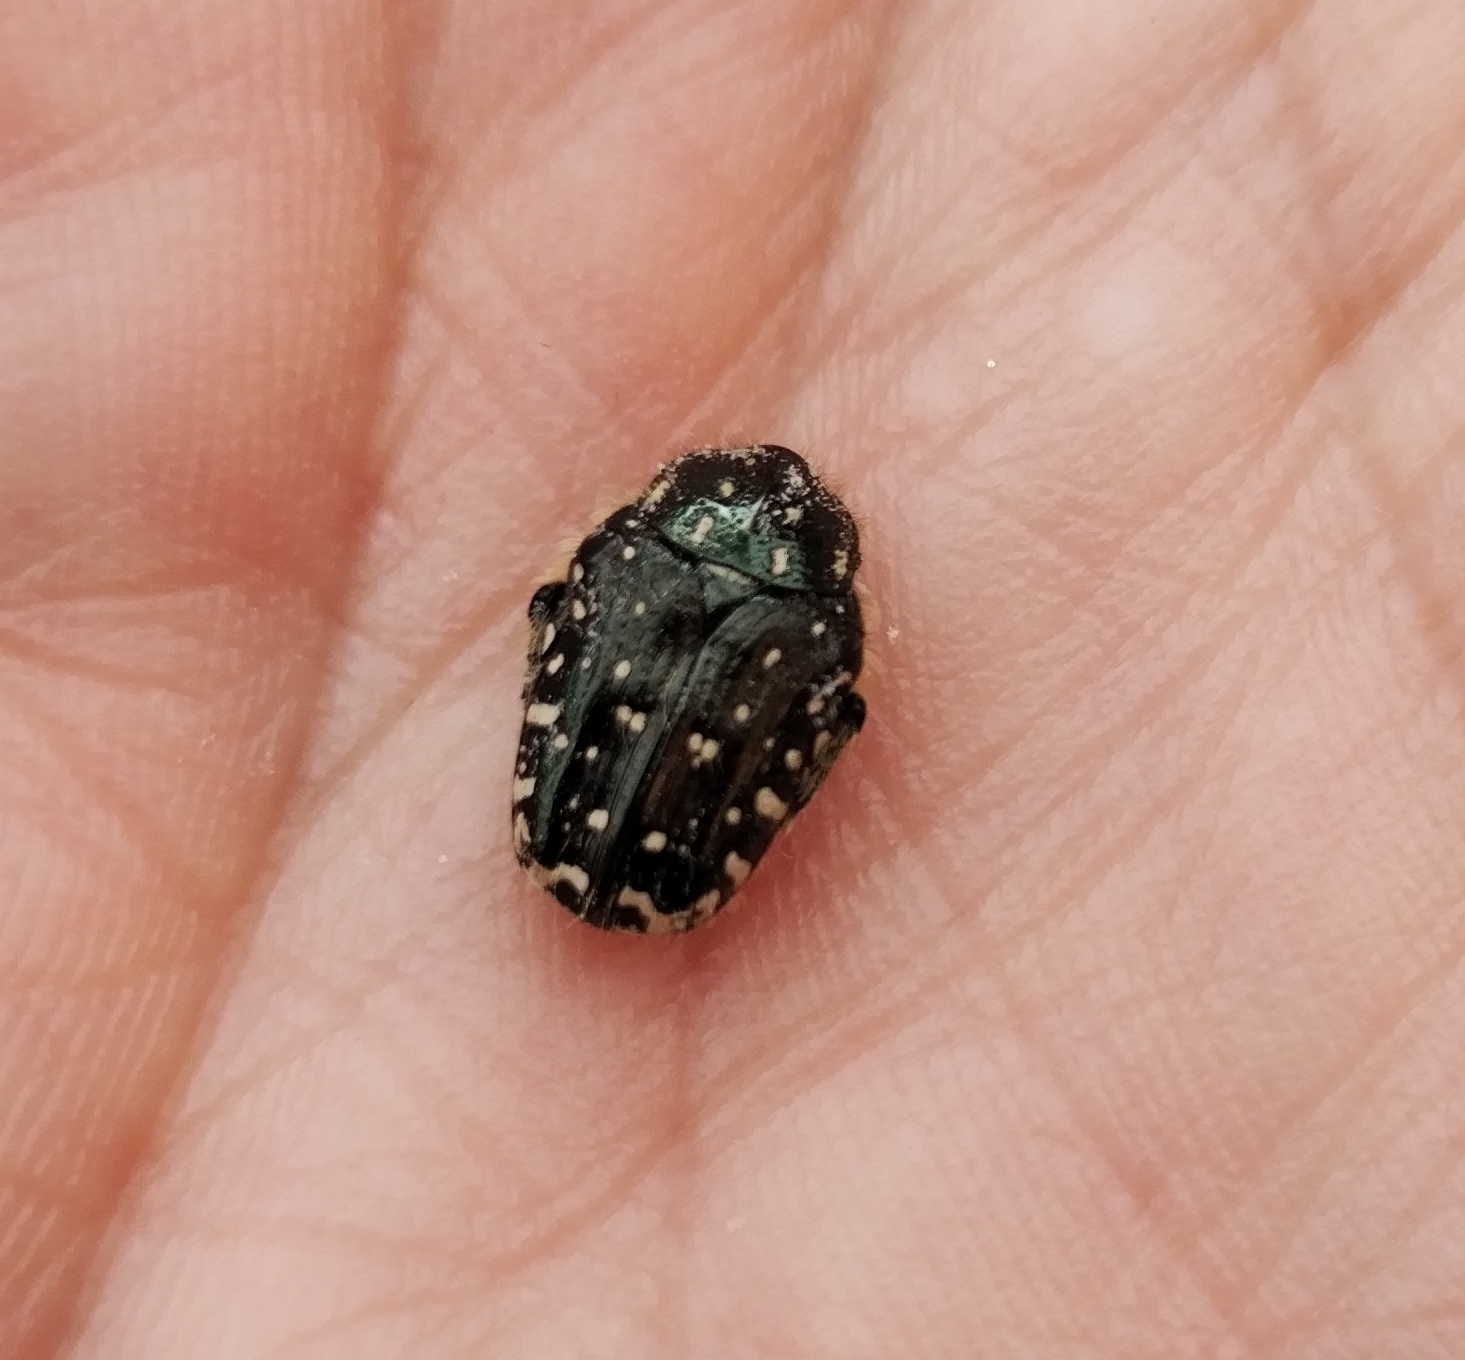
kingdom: Animalia
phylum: Arthropoda
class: Insecta
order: Coleoptera
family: Scarabaeidae
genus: Oxythyrea
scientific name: Oxythyrea funesta
